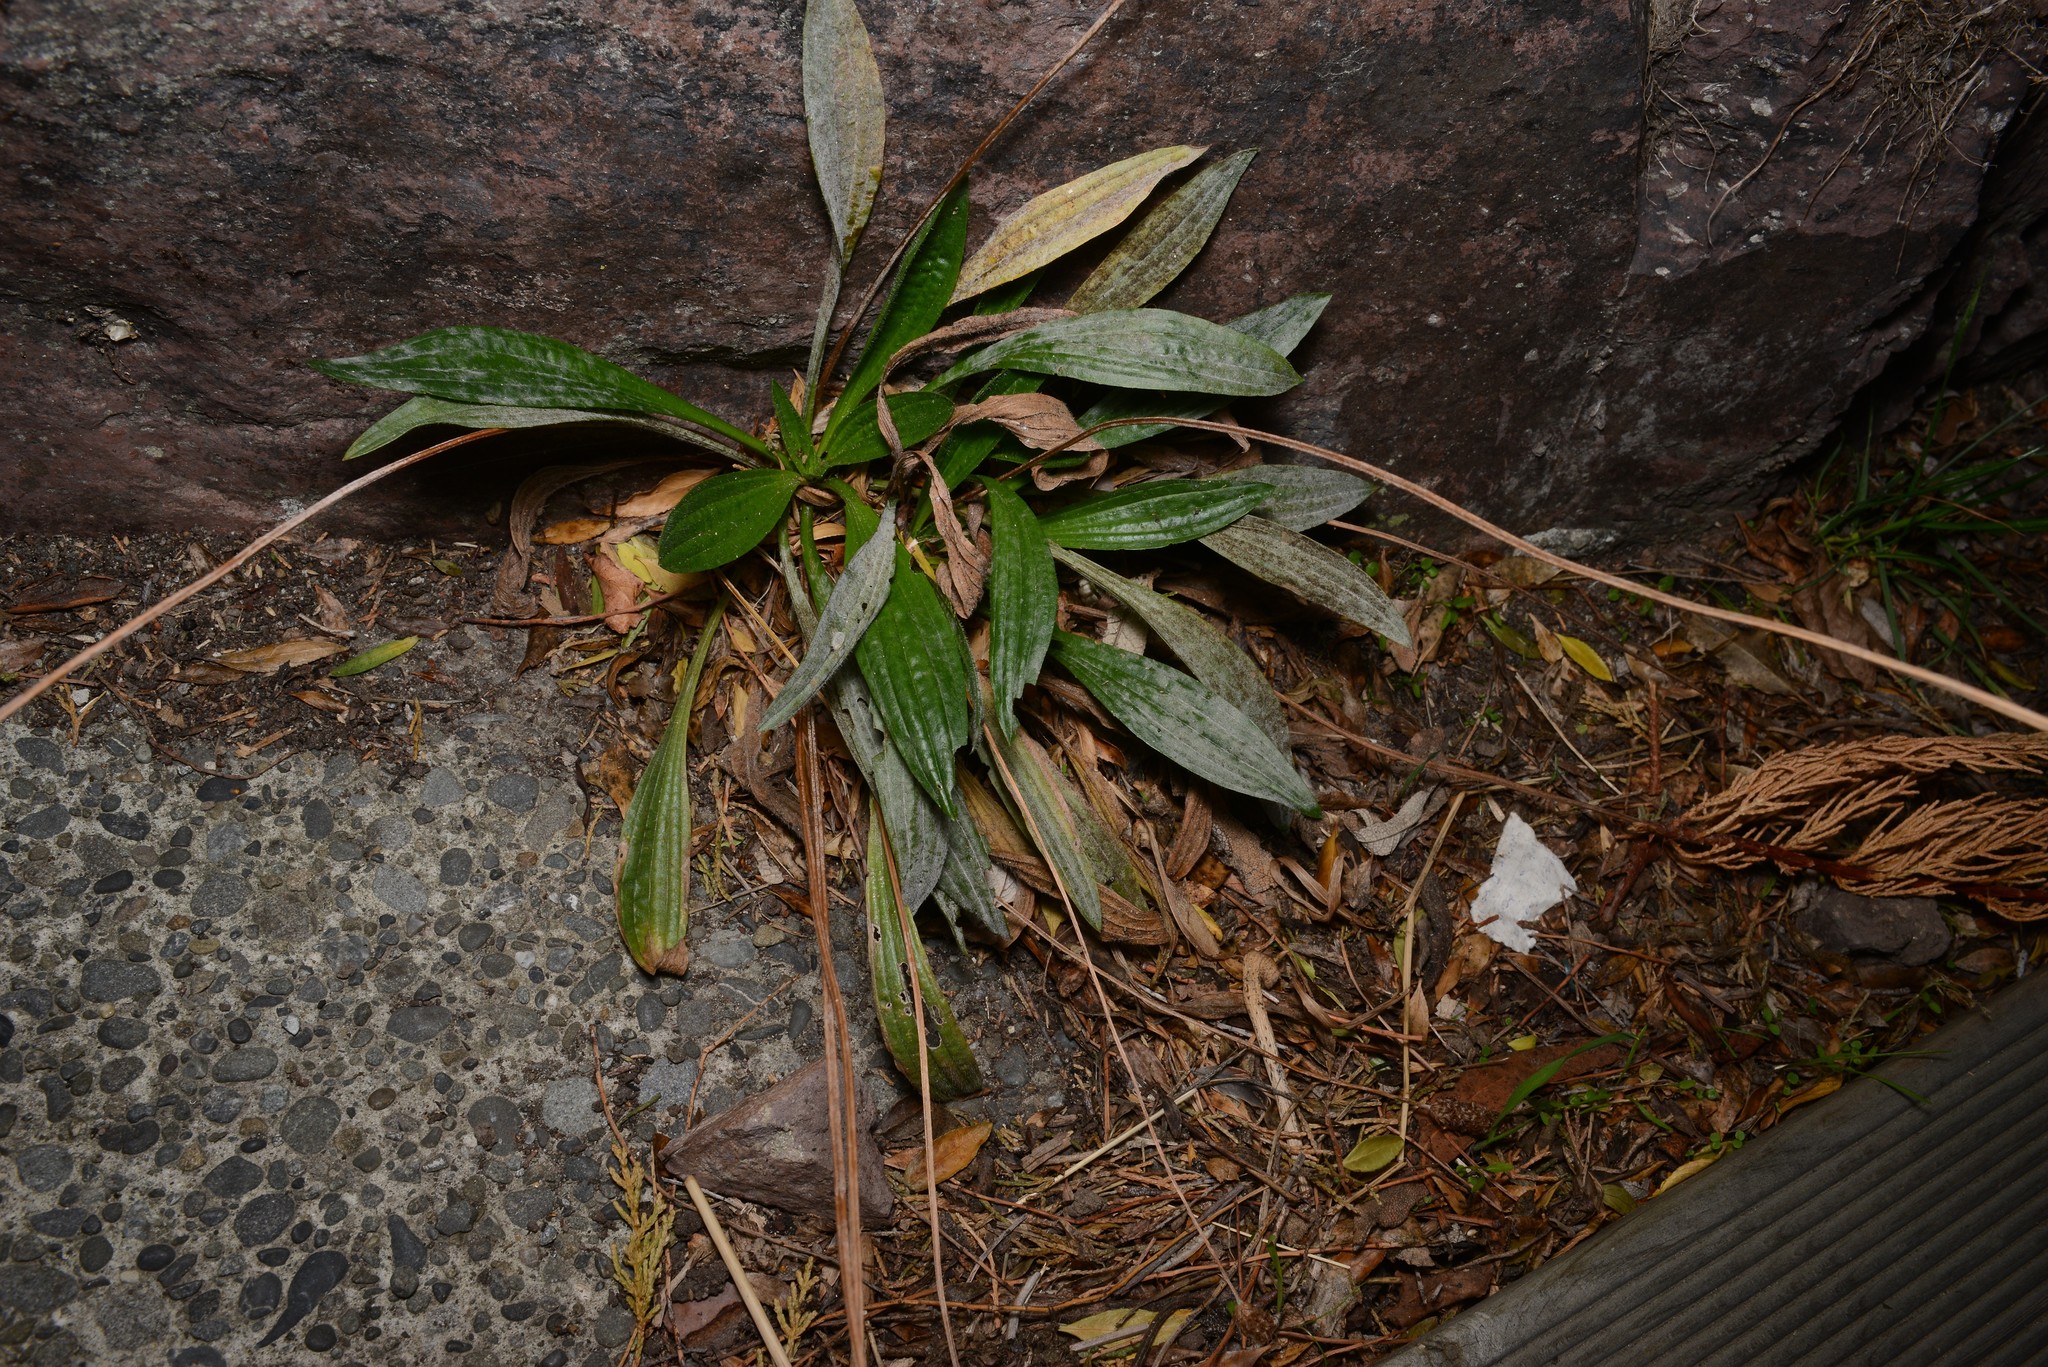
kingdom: Plantae
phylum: Tracheophyta
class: Magnoliopsida
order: Lamiales
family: Plantaginaceae
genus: Plantago
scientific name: Plantago lanceolata
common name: Ribwort plantain
